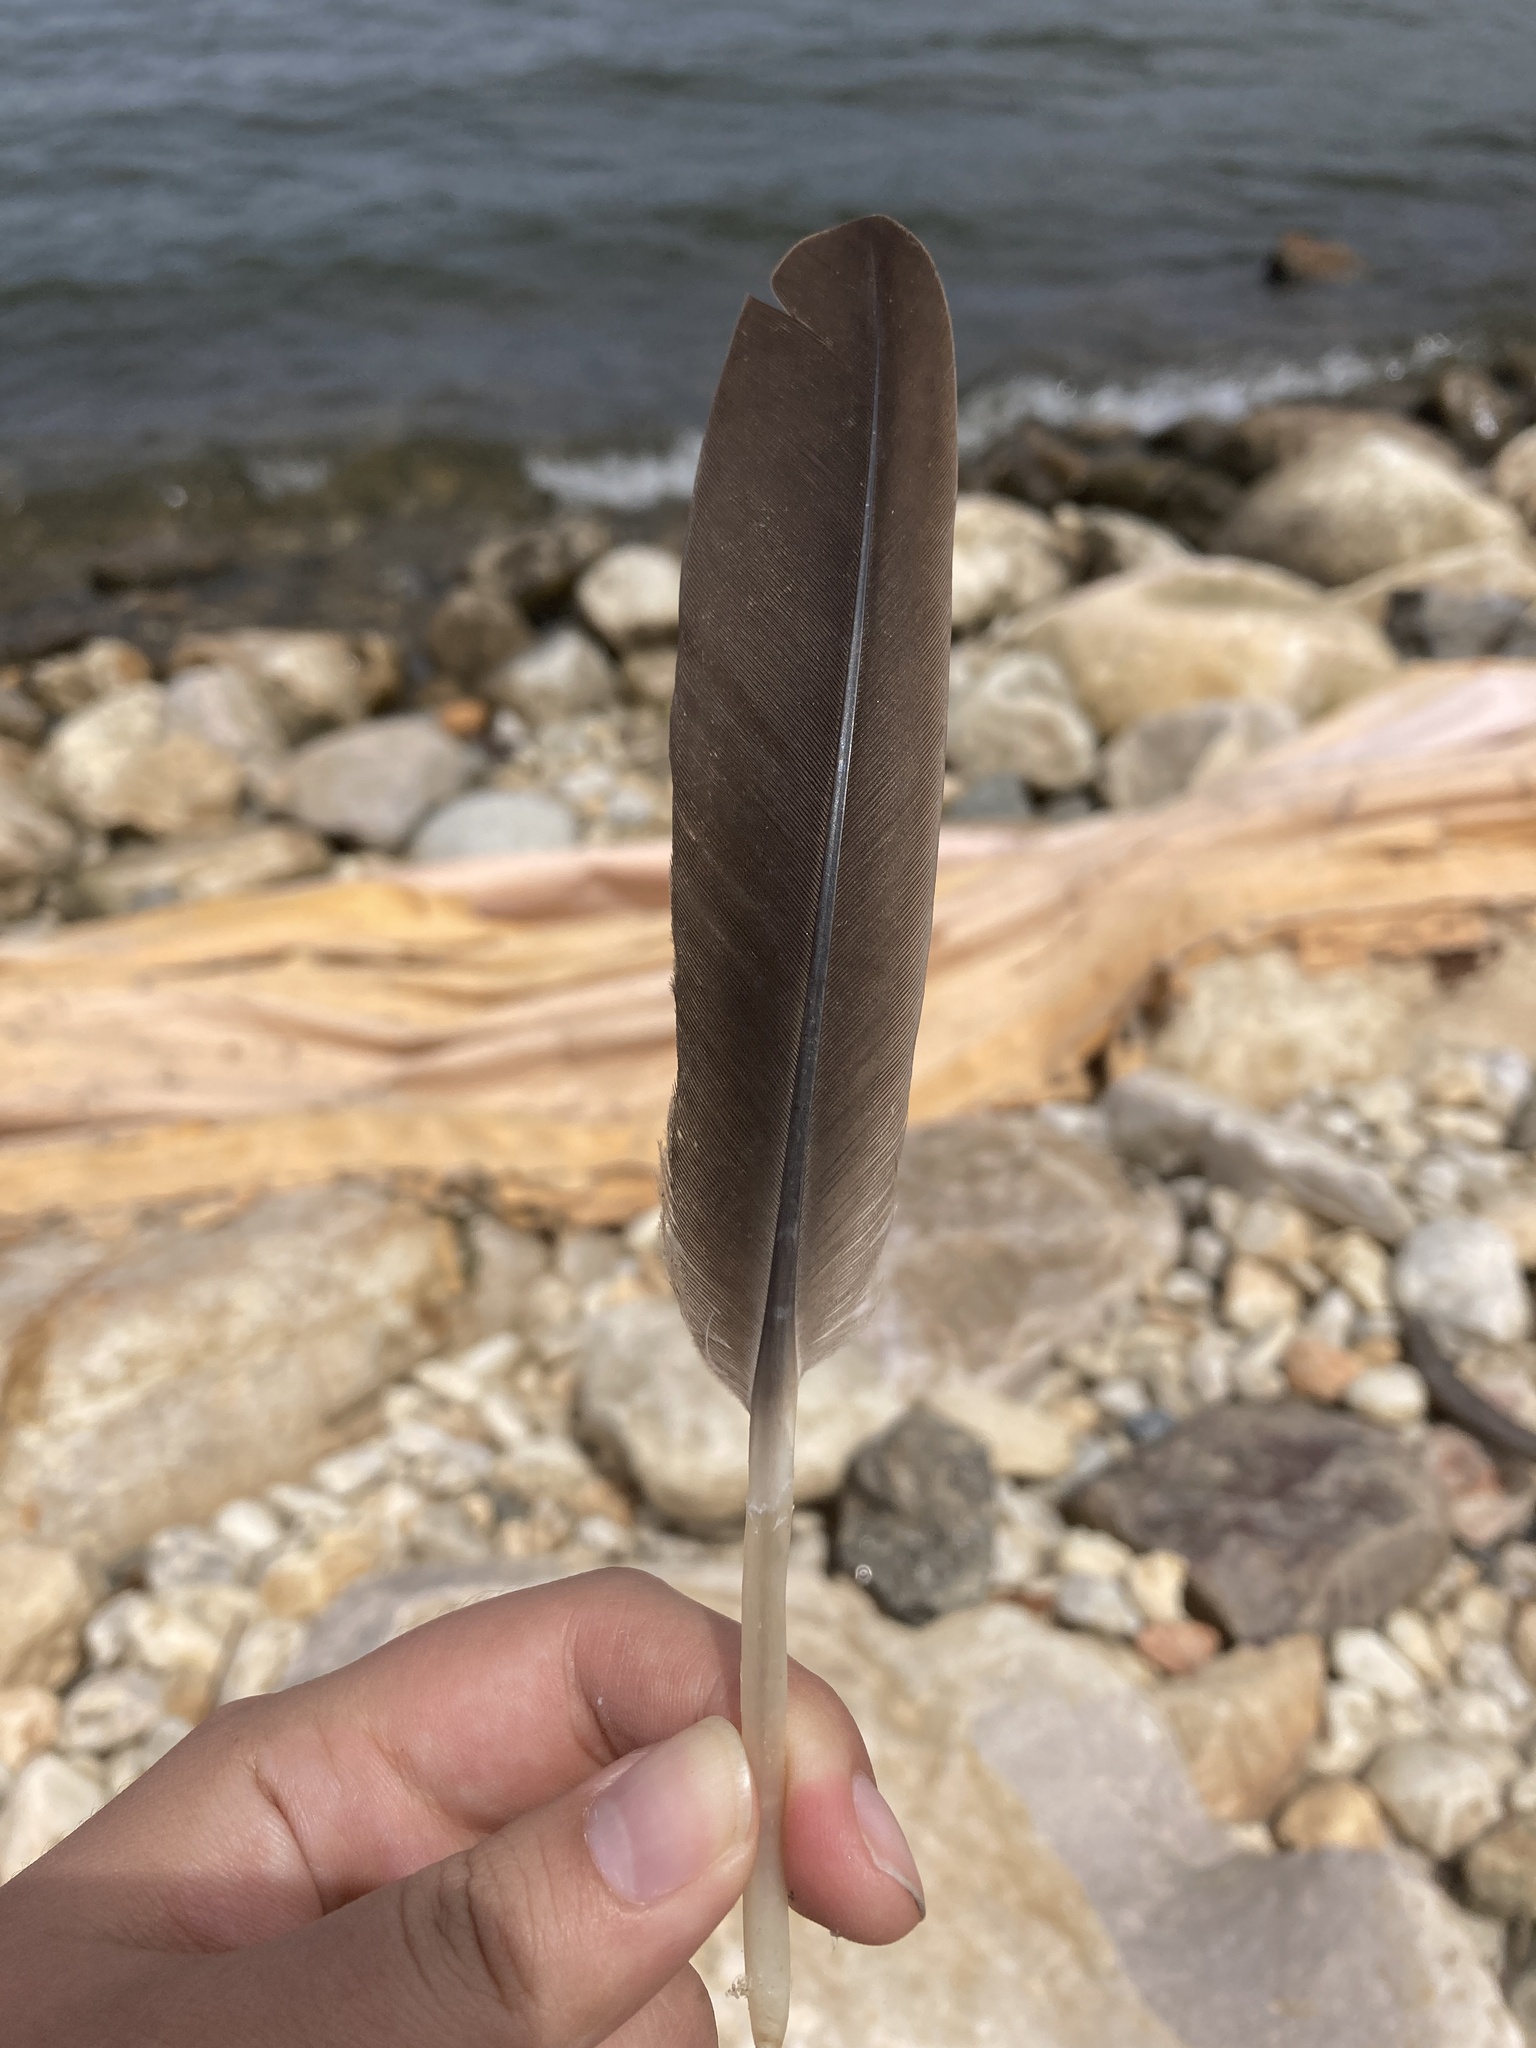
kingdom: Animalia
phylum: Chordata
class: Aves
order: Anseriformes
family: Anatidae
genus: Branta
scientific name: Branta canadensis
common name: Canada goose
